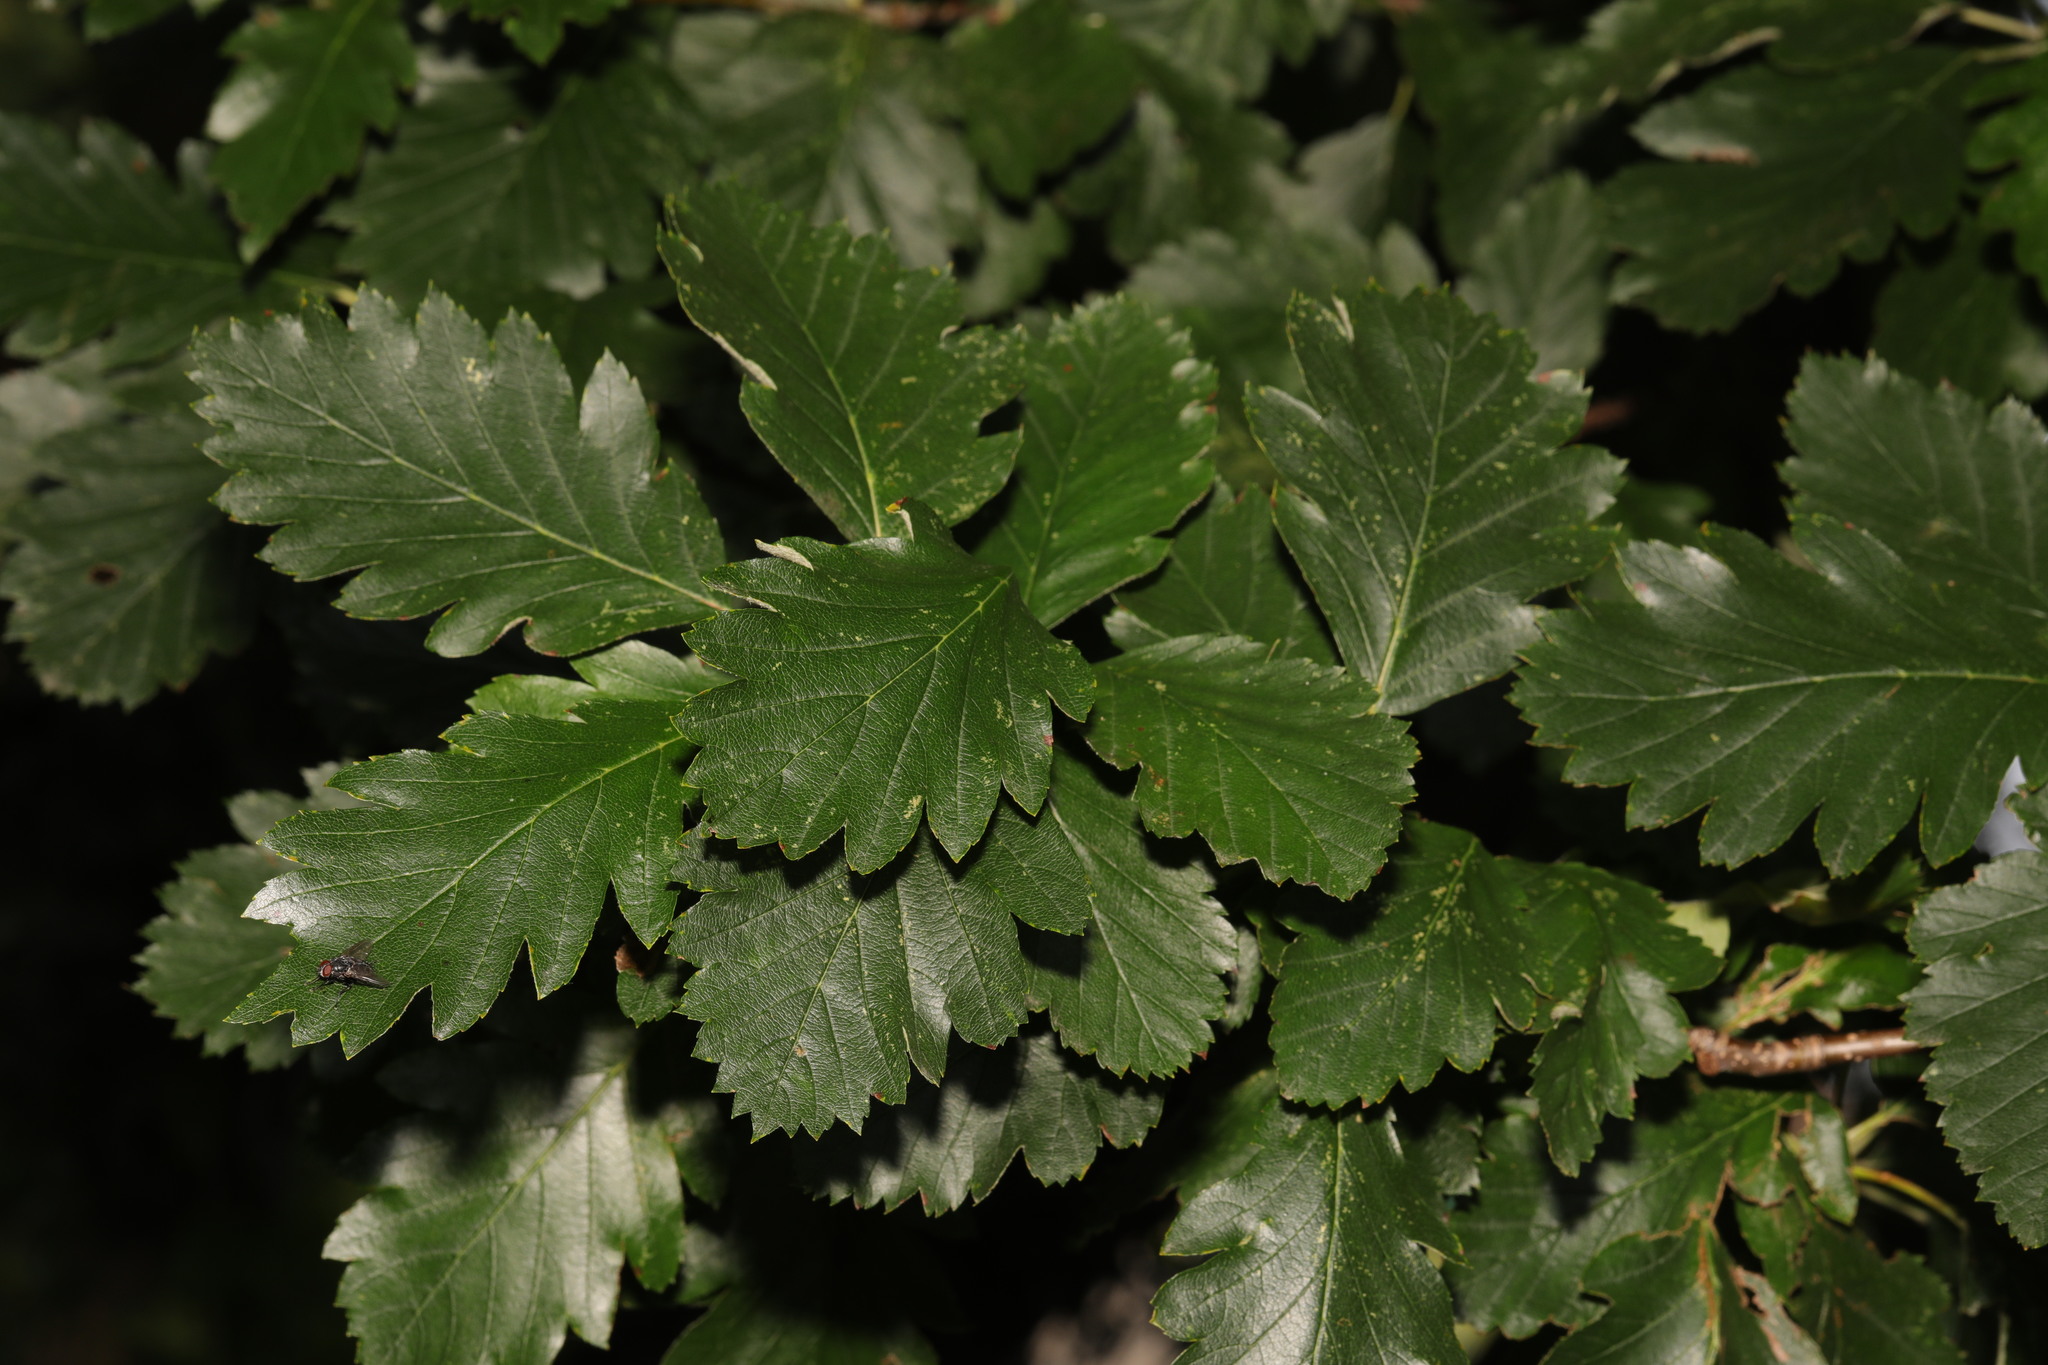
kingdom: Plantae
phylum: Tracheophyta
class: Magnoliopsida
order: Rosales
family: Rosaceae
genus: Scandosorbus
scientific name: Scandosorbus intermedia
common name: Swedish whitebeam
